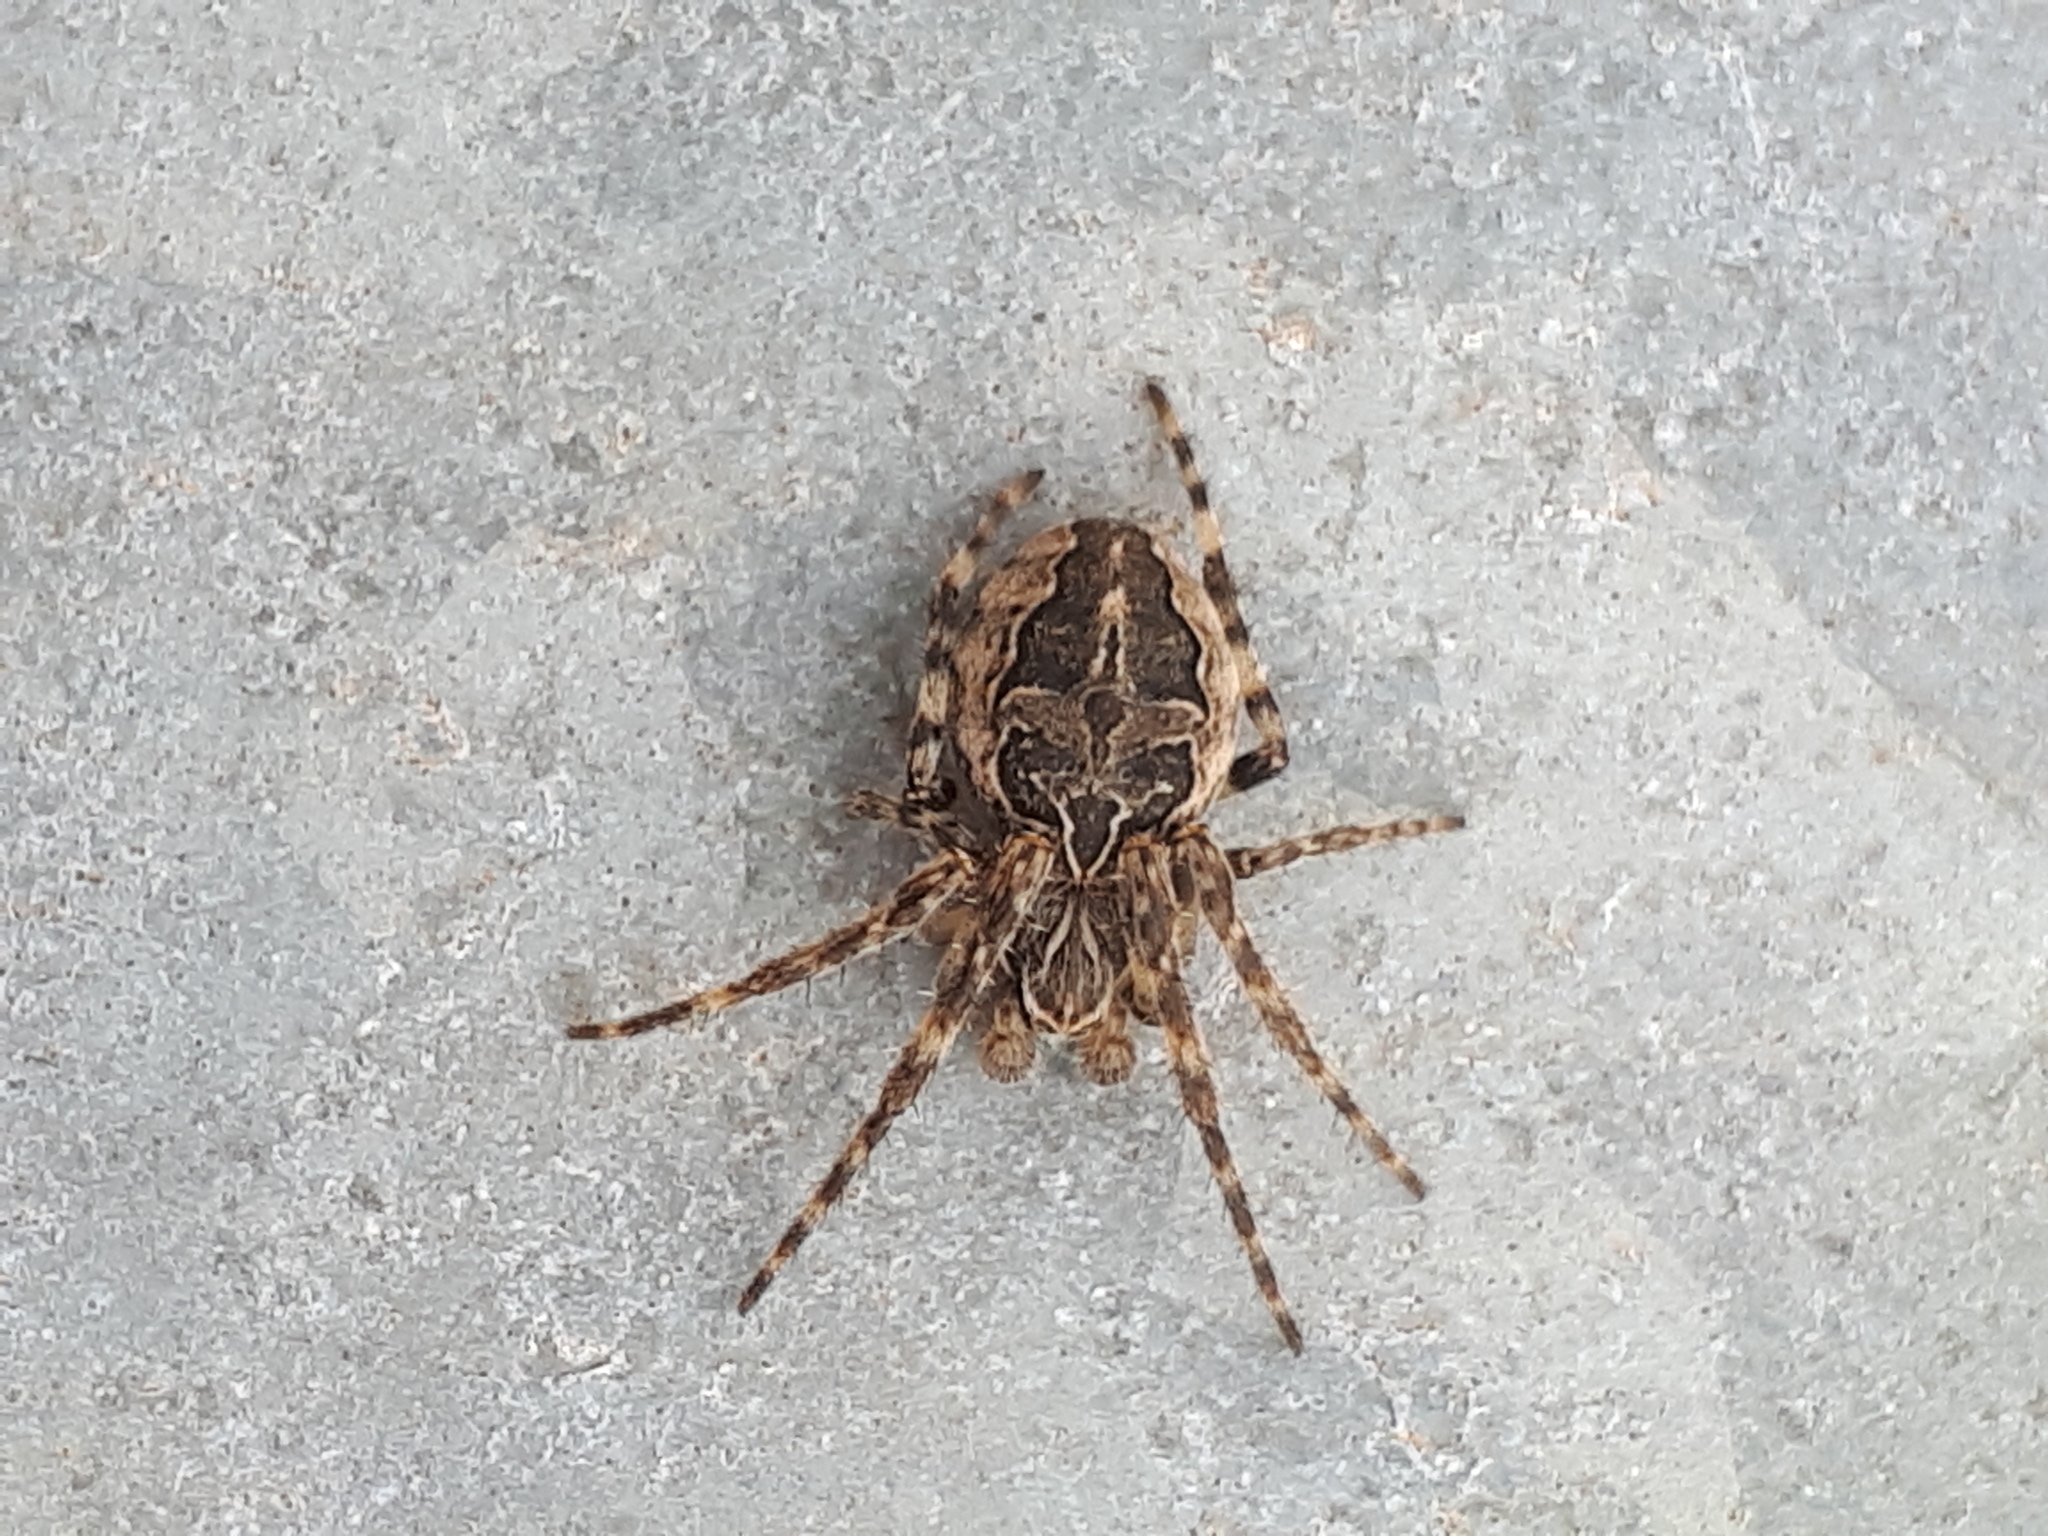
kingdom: Animalia
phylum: Arthropoda
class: Arachnida
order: Araneae
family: Araneidae
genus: Larinioides
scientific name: Larinioides sclopetarius
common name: Bridge orbweaver
